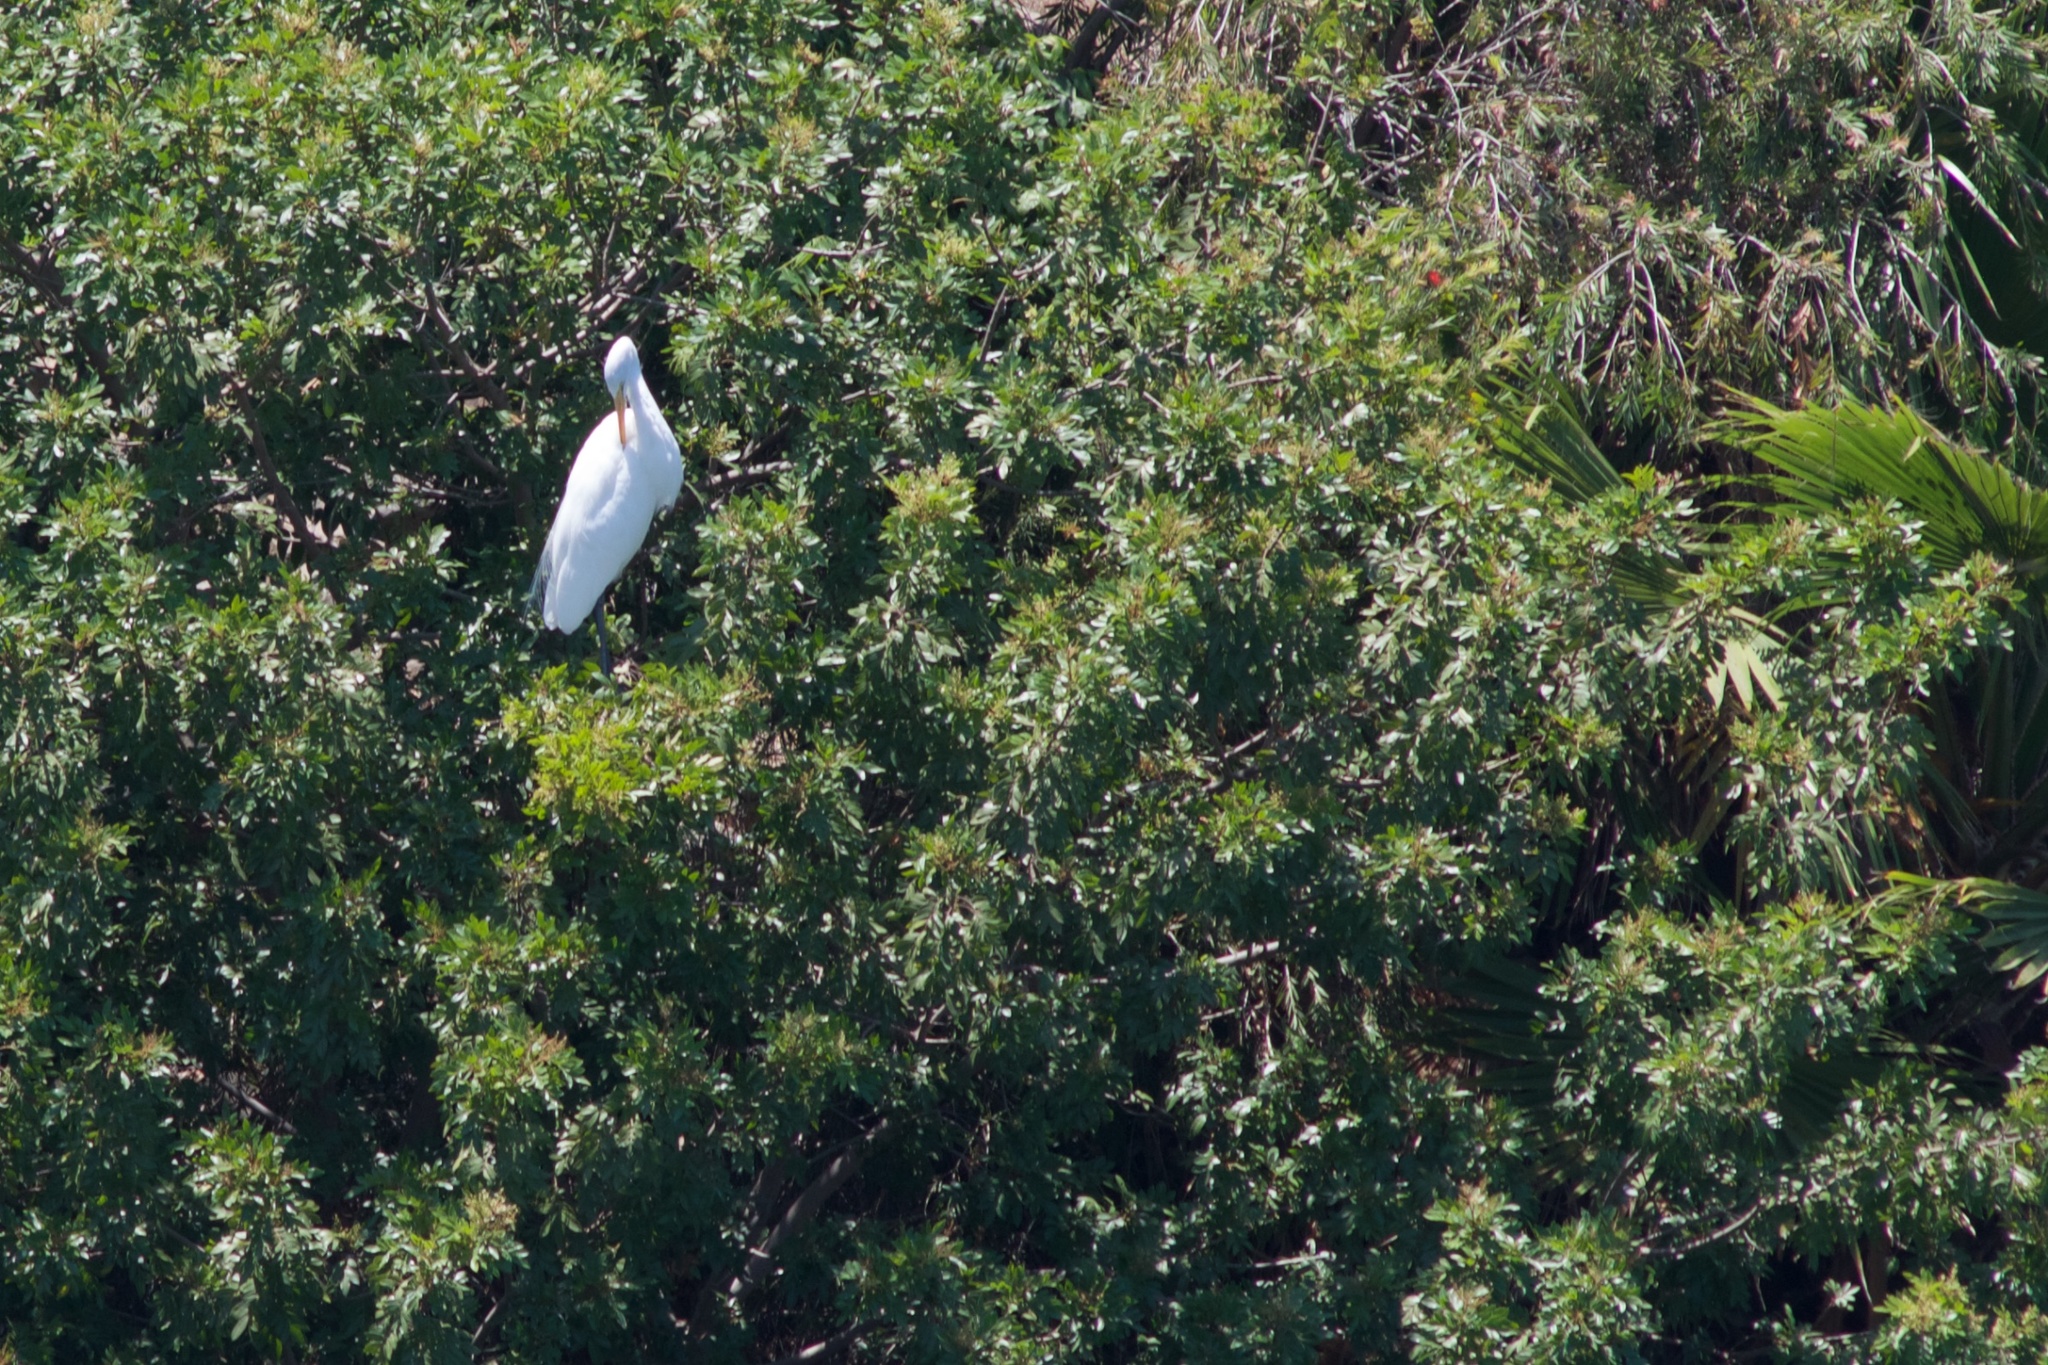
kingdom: Animalia
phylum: Chordata
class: Aves
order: Pelecaniformes
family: Ardeidae
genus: Ardea
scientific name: Ardea alba
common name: Great egret
